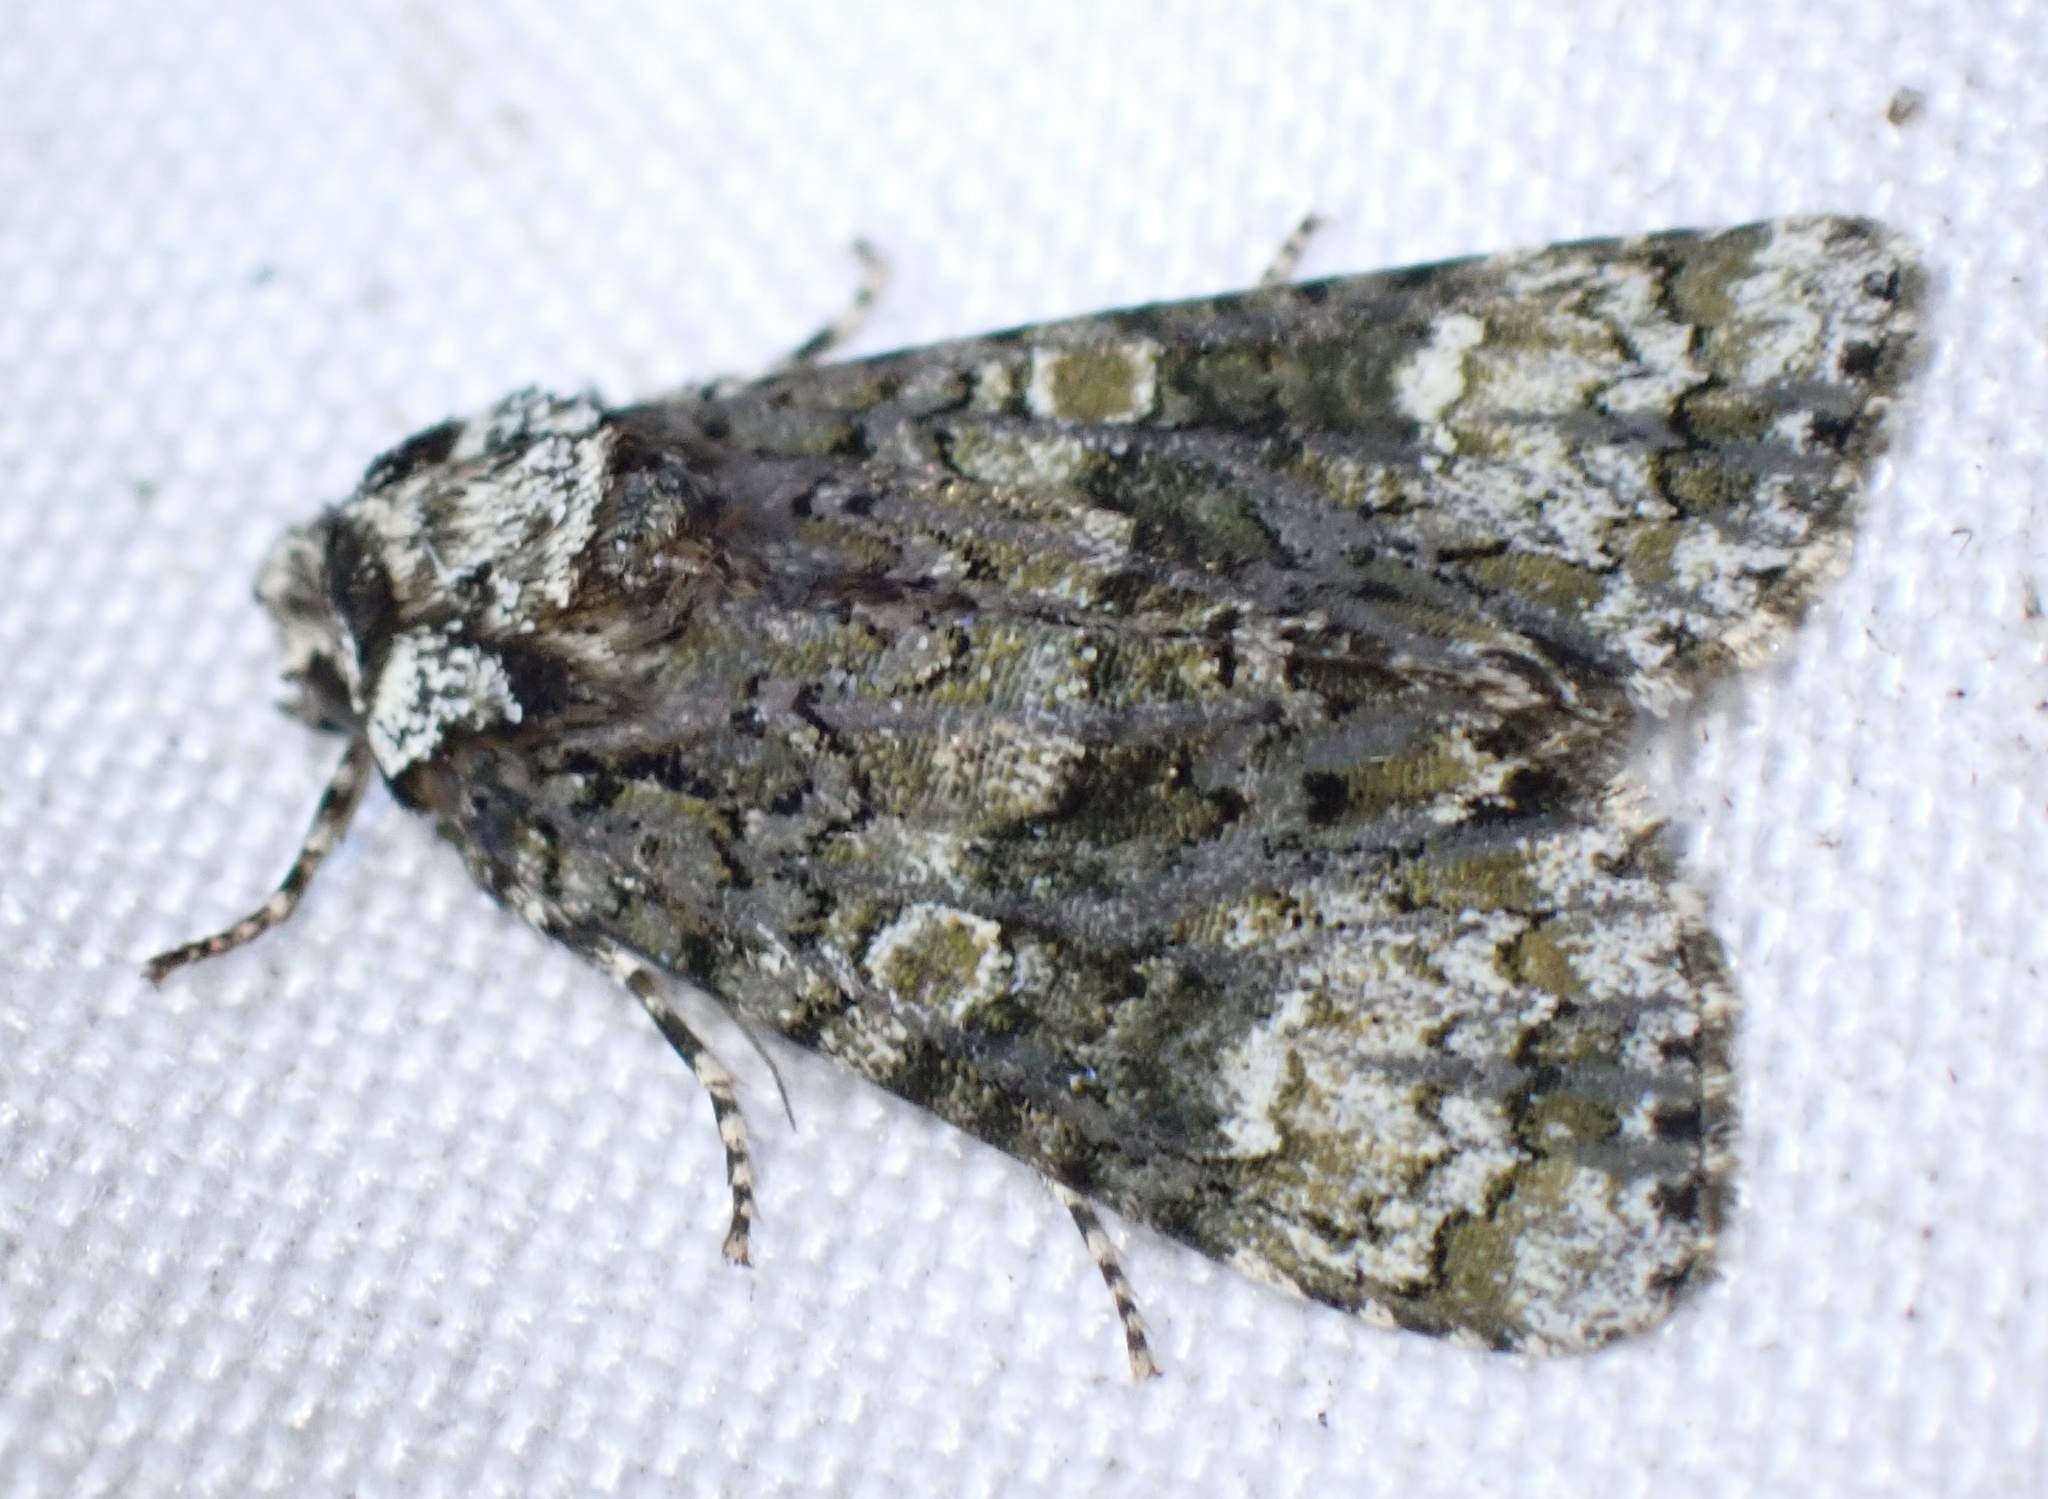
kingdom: Animalia
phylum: Arthropoda
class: Insecta
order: Lepidoptera
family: Noctuidae
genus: Craniophora
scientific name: Craniophora ligustri
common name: Coronet
